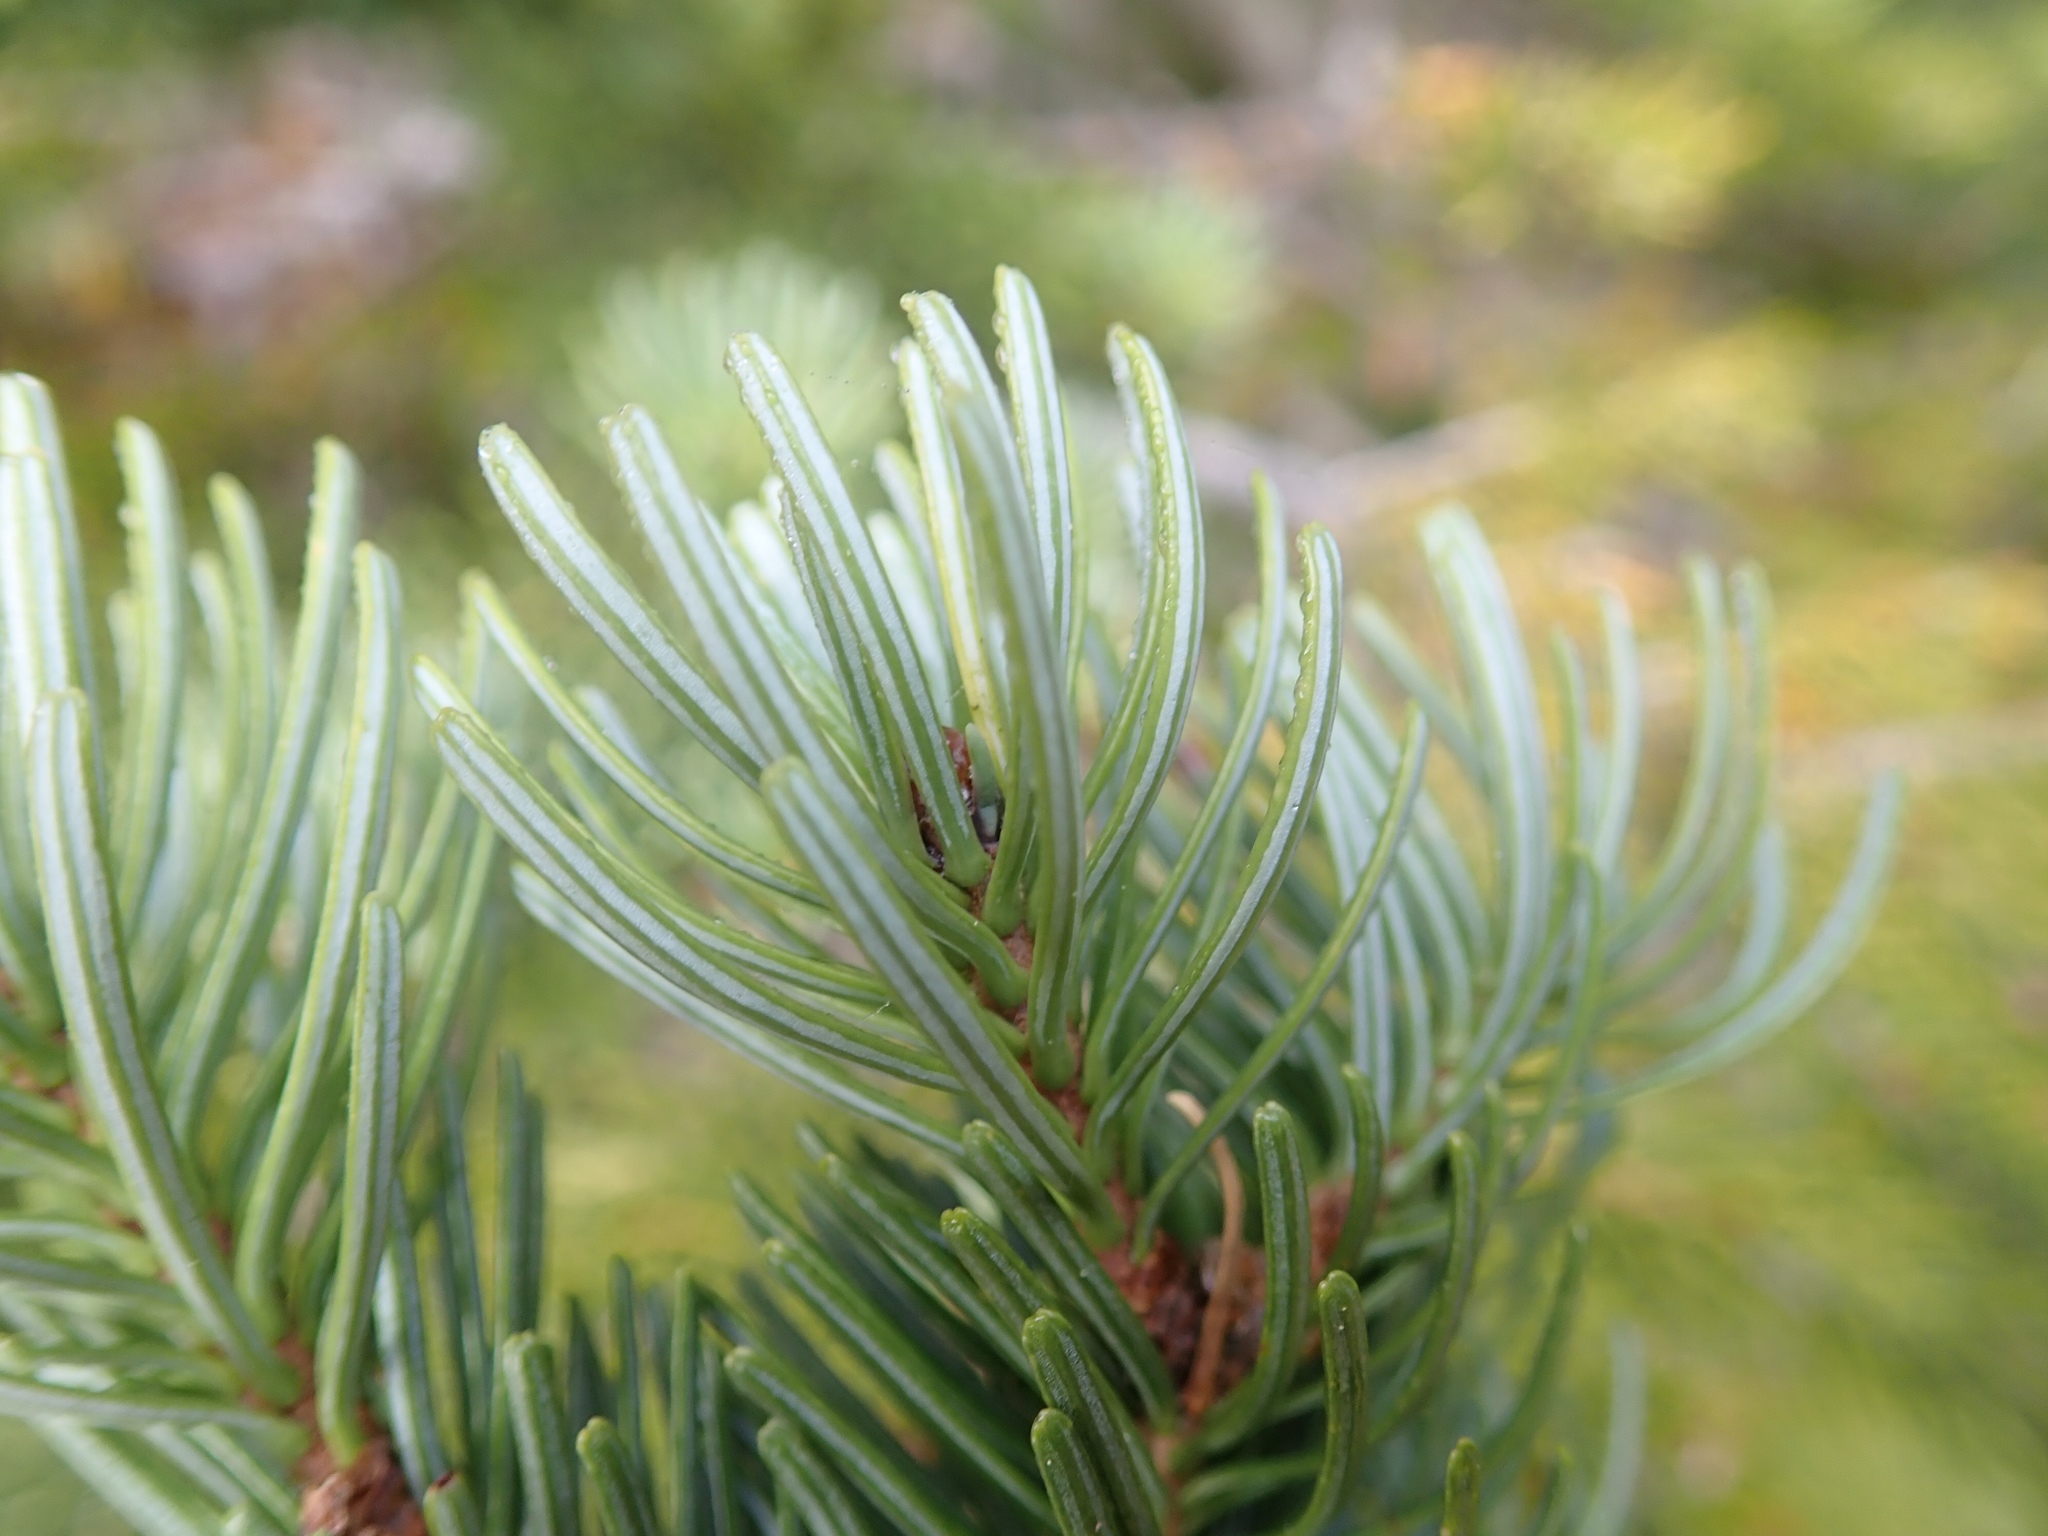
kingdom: Plantae
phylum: Tracheophyta
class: Pinopsida
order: Pinales
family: Pinaceae
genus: Abies
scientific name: Abies lasiocarpa
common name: Subalpine fir
